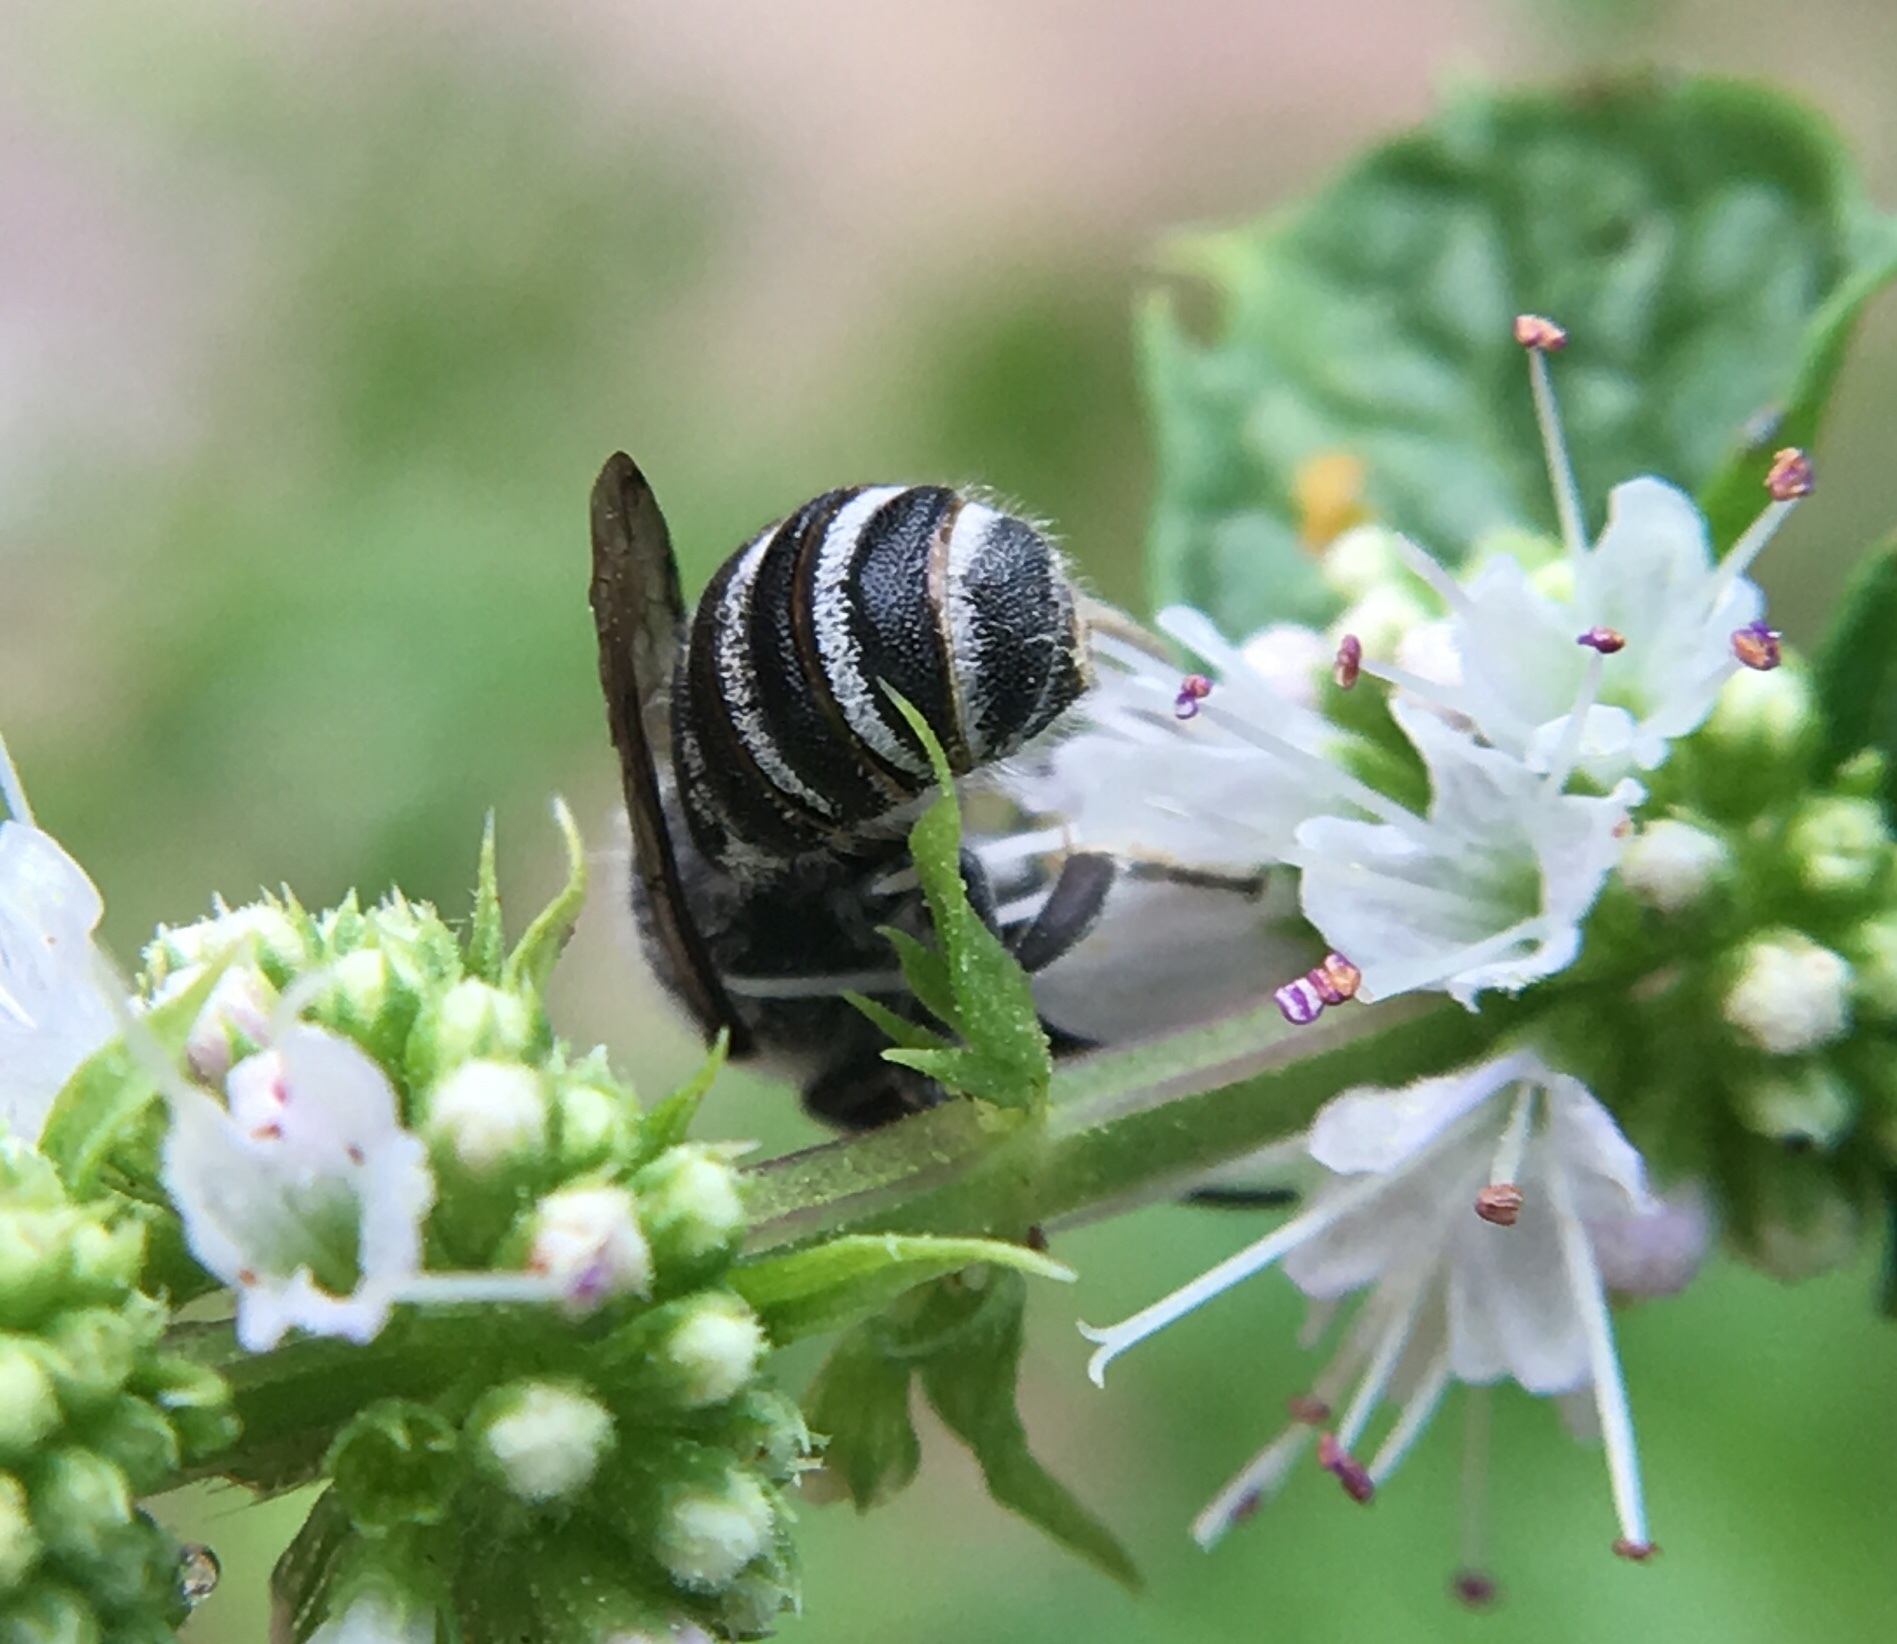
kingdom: Animalia
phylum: Arthropoda
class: Insecta
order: Hymenoptera
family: Megachilidae
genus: Megachile
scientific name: Megachile exilis
